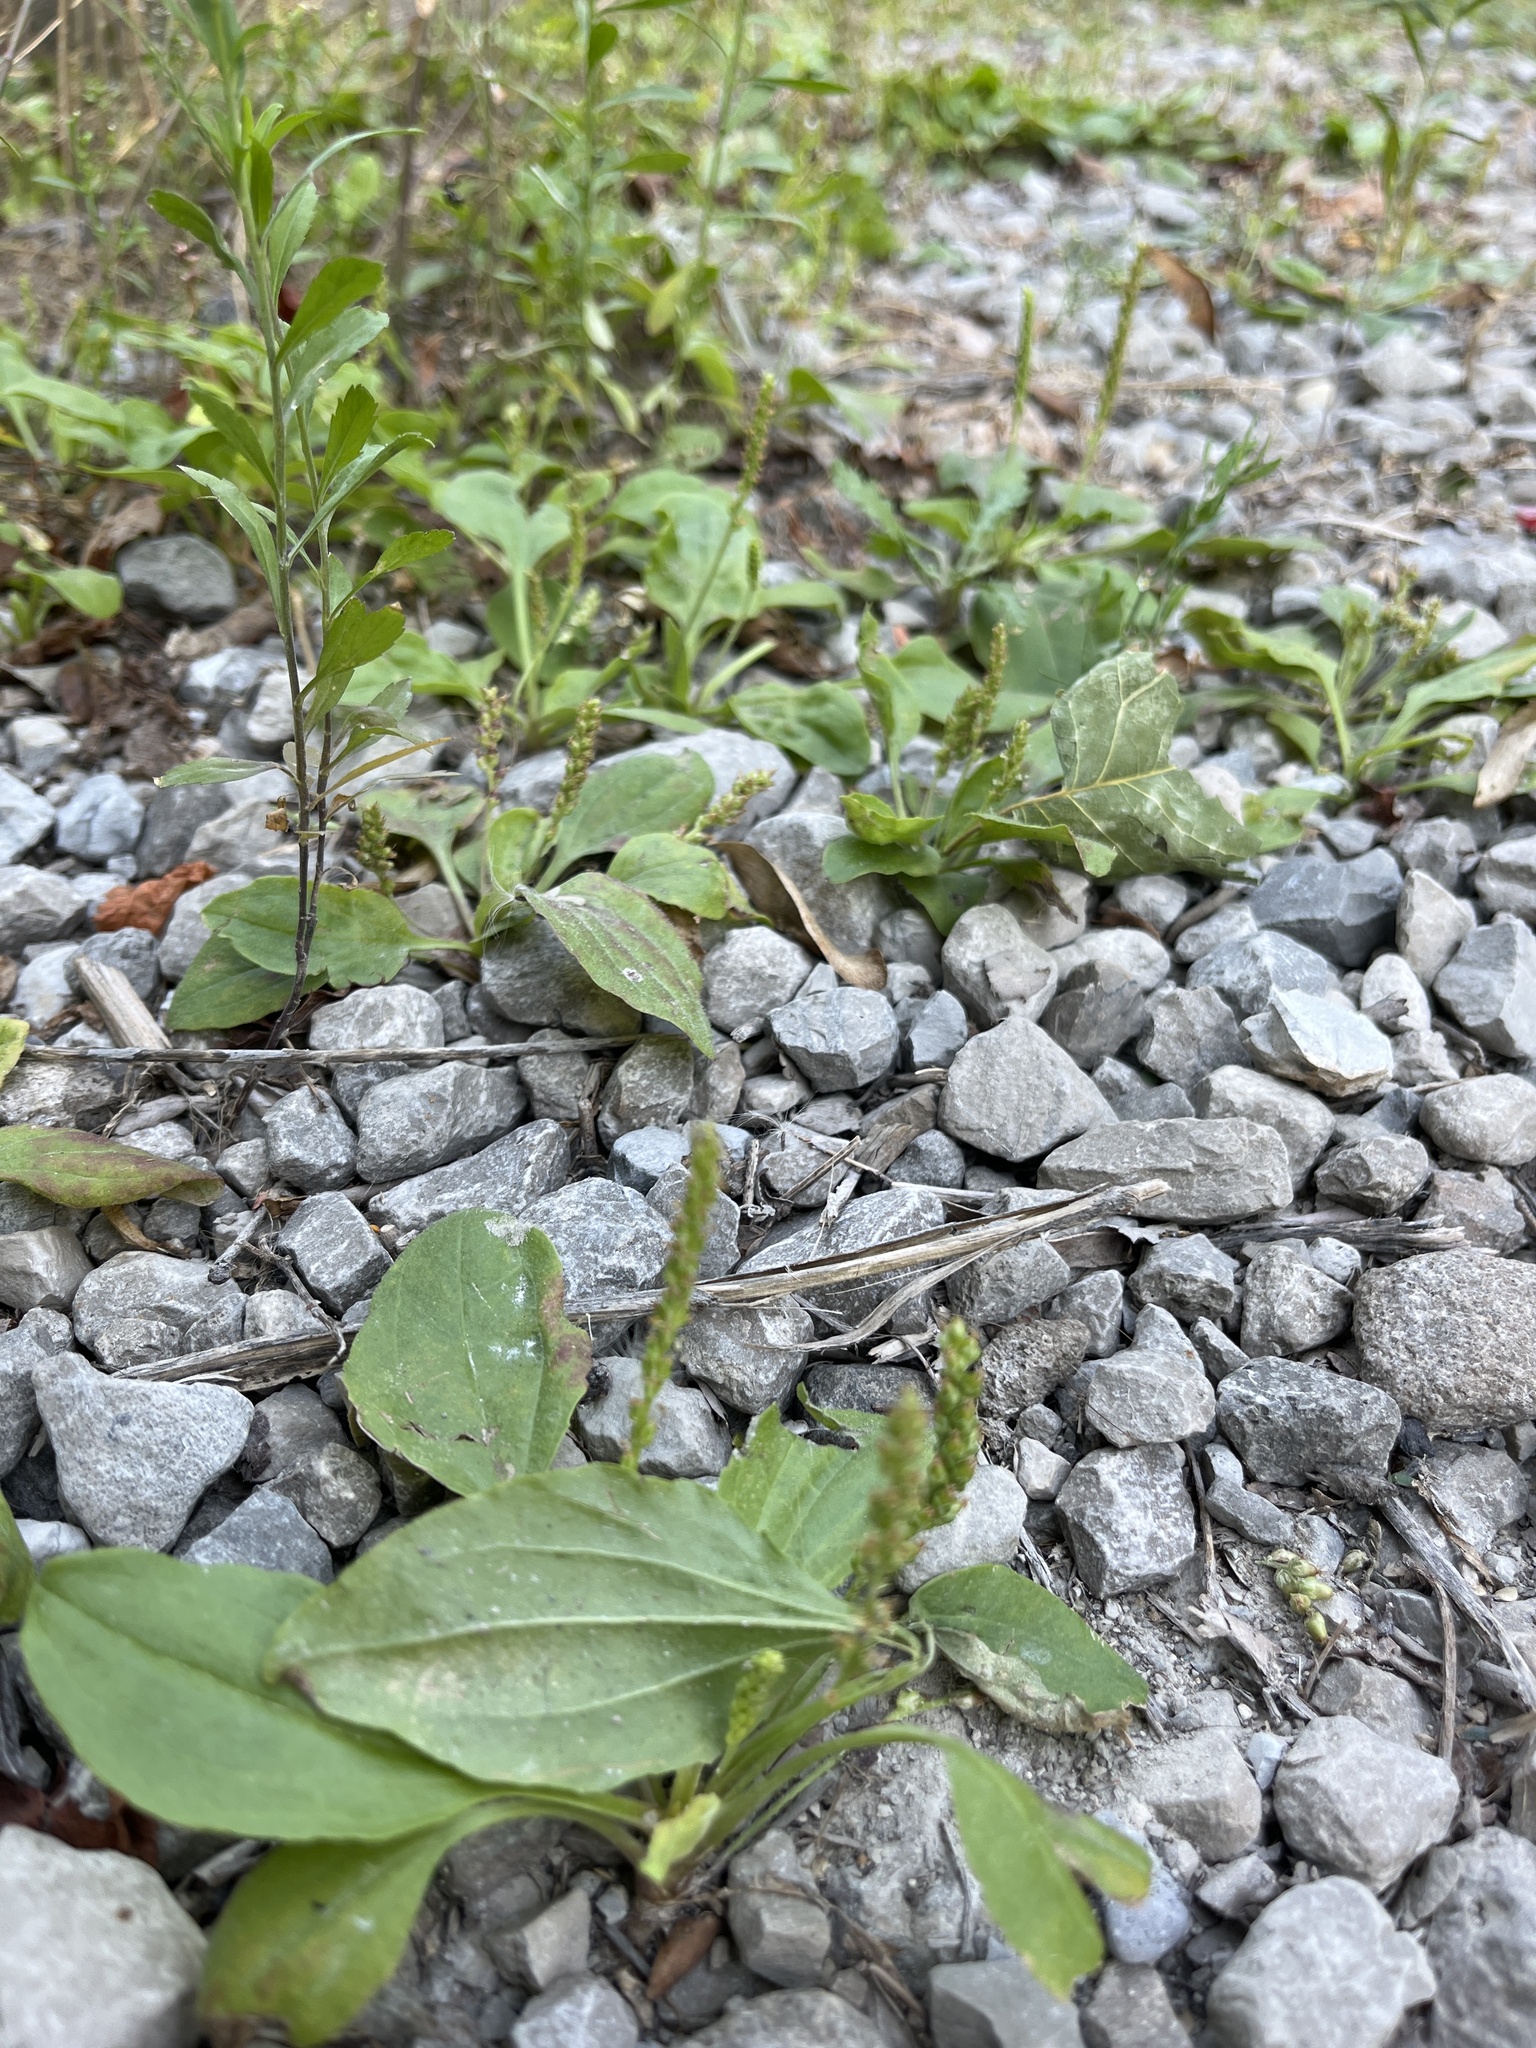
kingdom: Plantae
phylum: Tracheophyta
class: Magnoliopsida
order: Lamiales
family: Plantaginaceae
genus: Plantago
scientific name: Plantago major
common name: Common plantain
